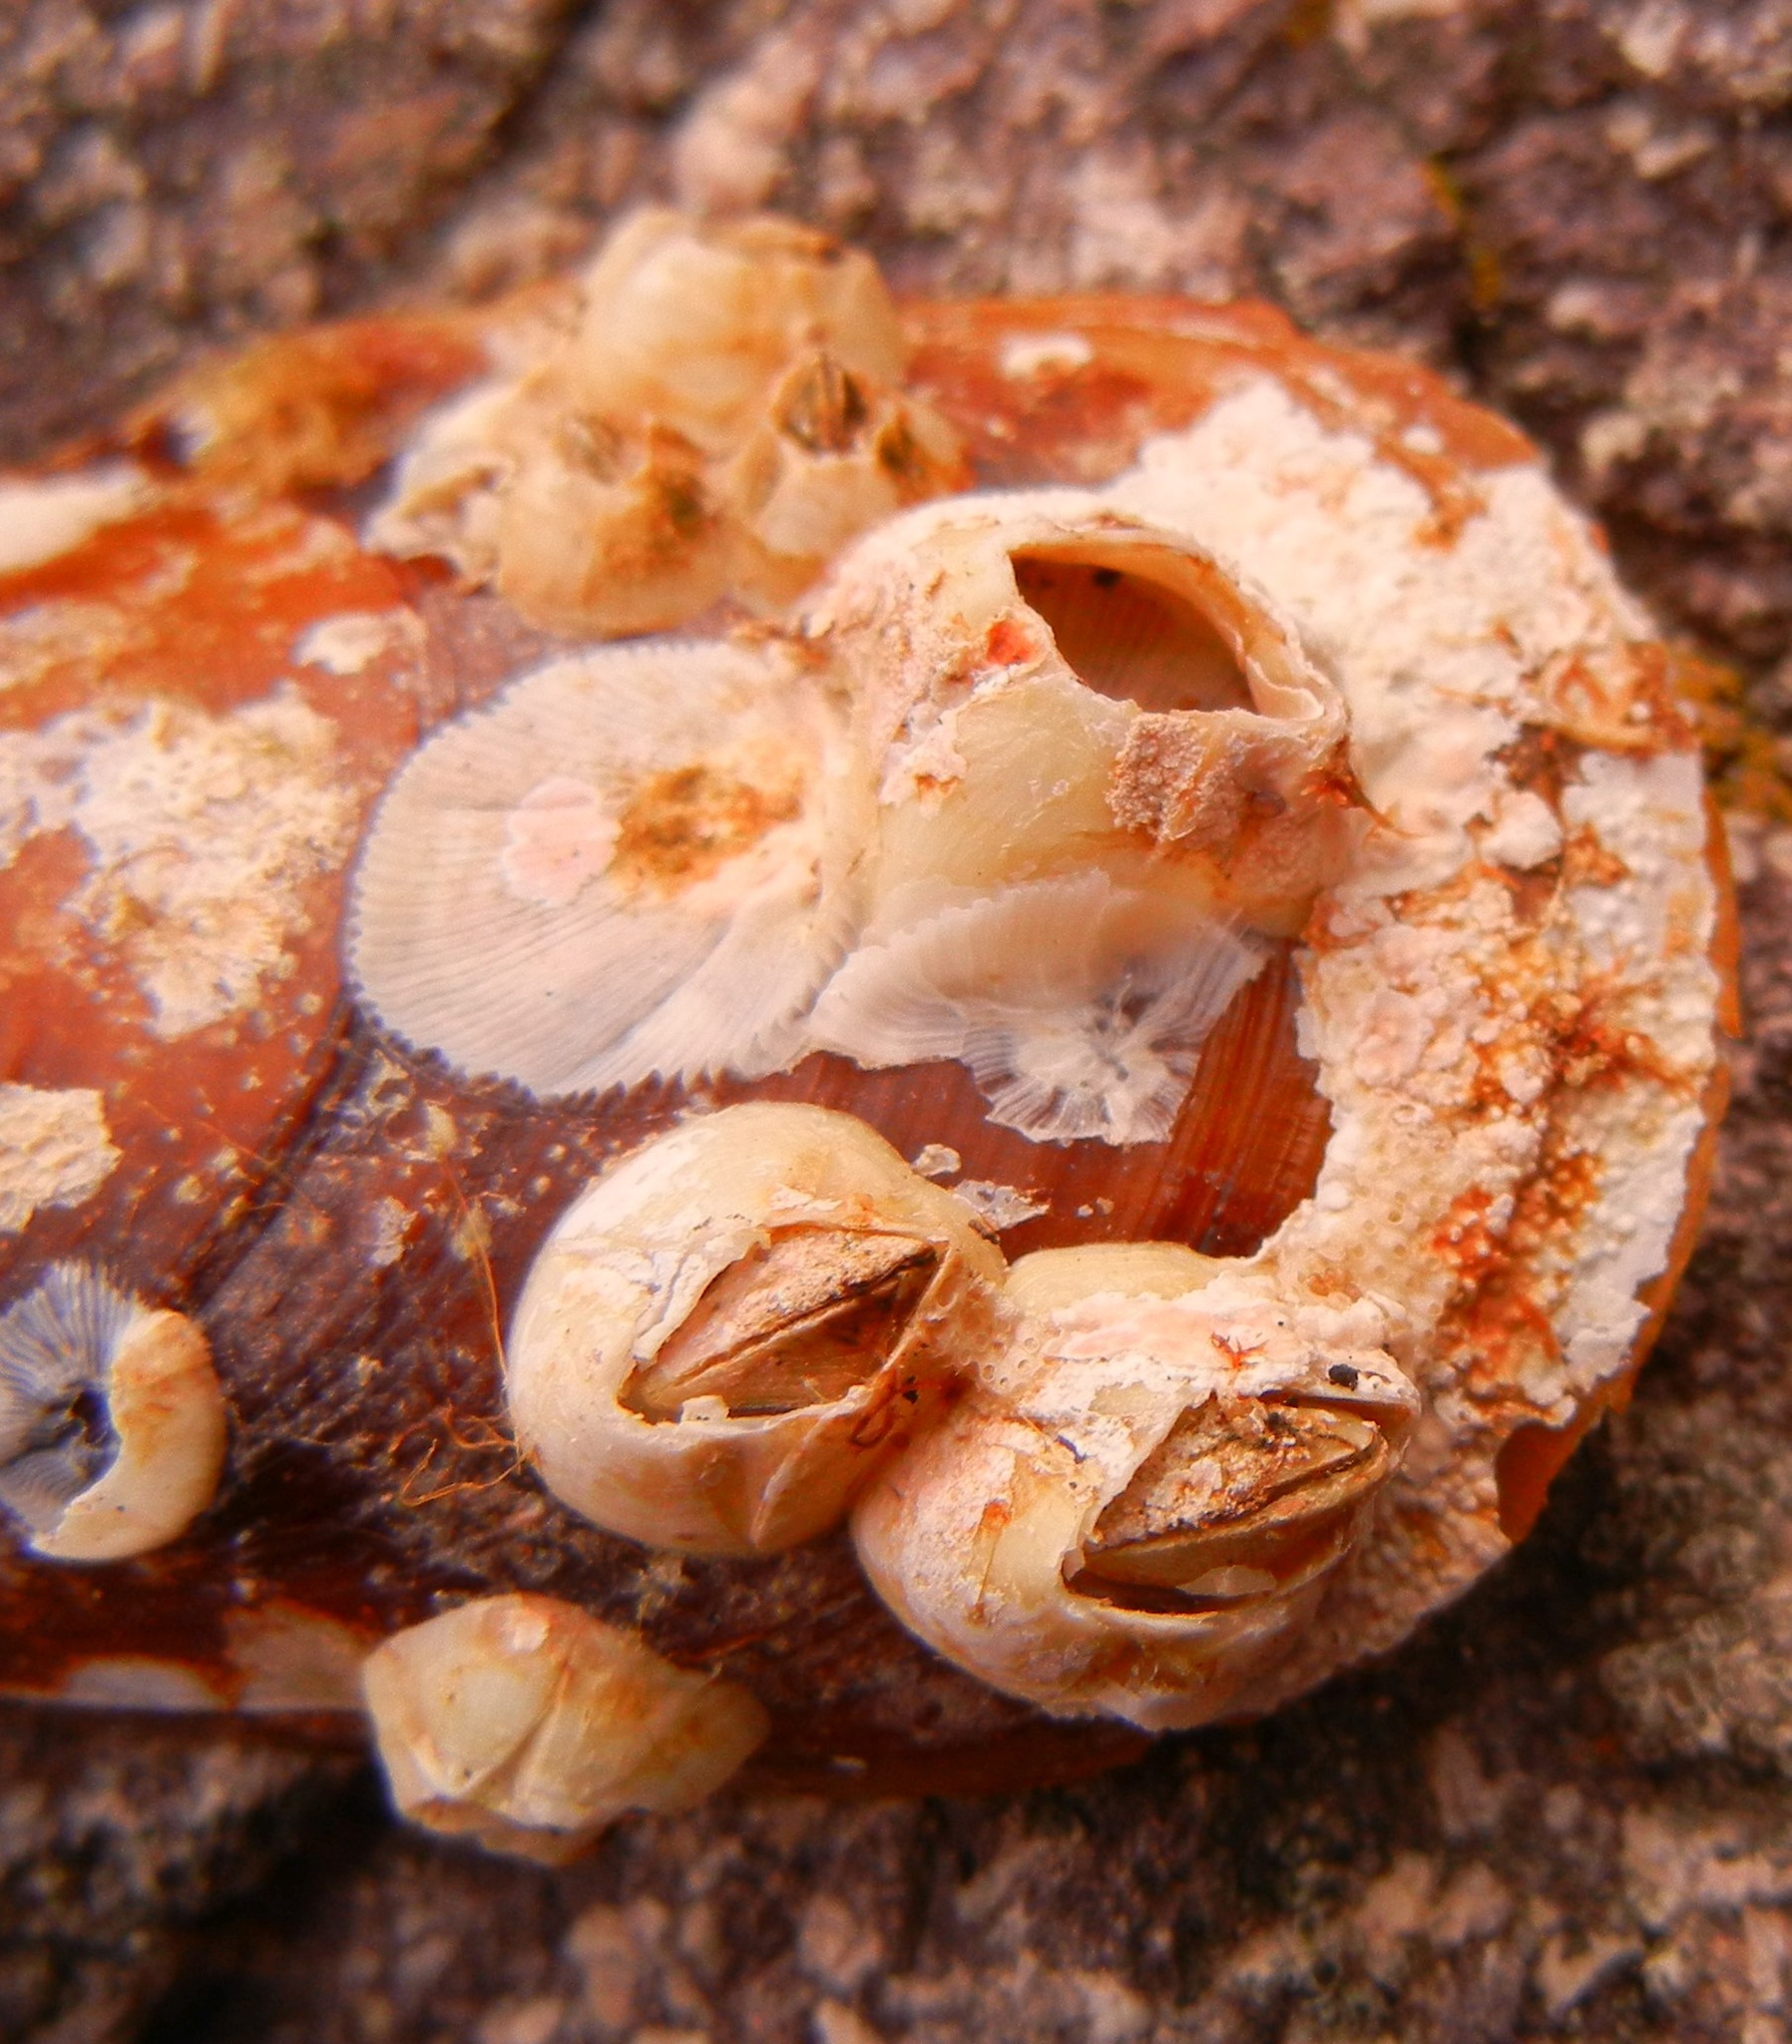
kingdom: Animalia
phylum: Arthropoda
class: Maxillopoda
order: Sessilia
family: Balanidae
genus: Amphibalanus
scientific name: Amphibalanus improvisus
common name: Bay barnacle
